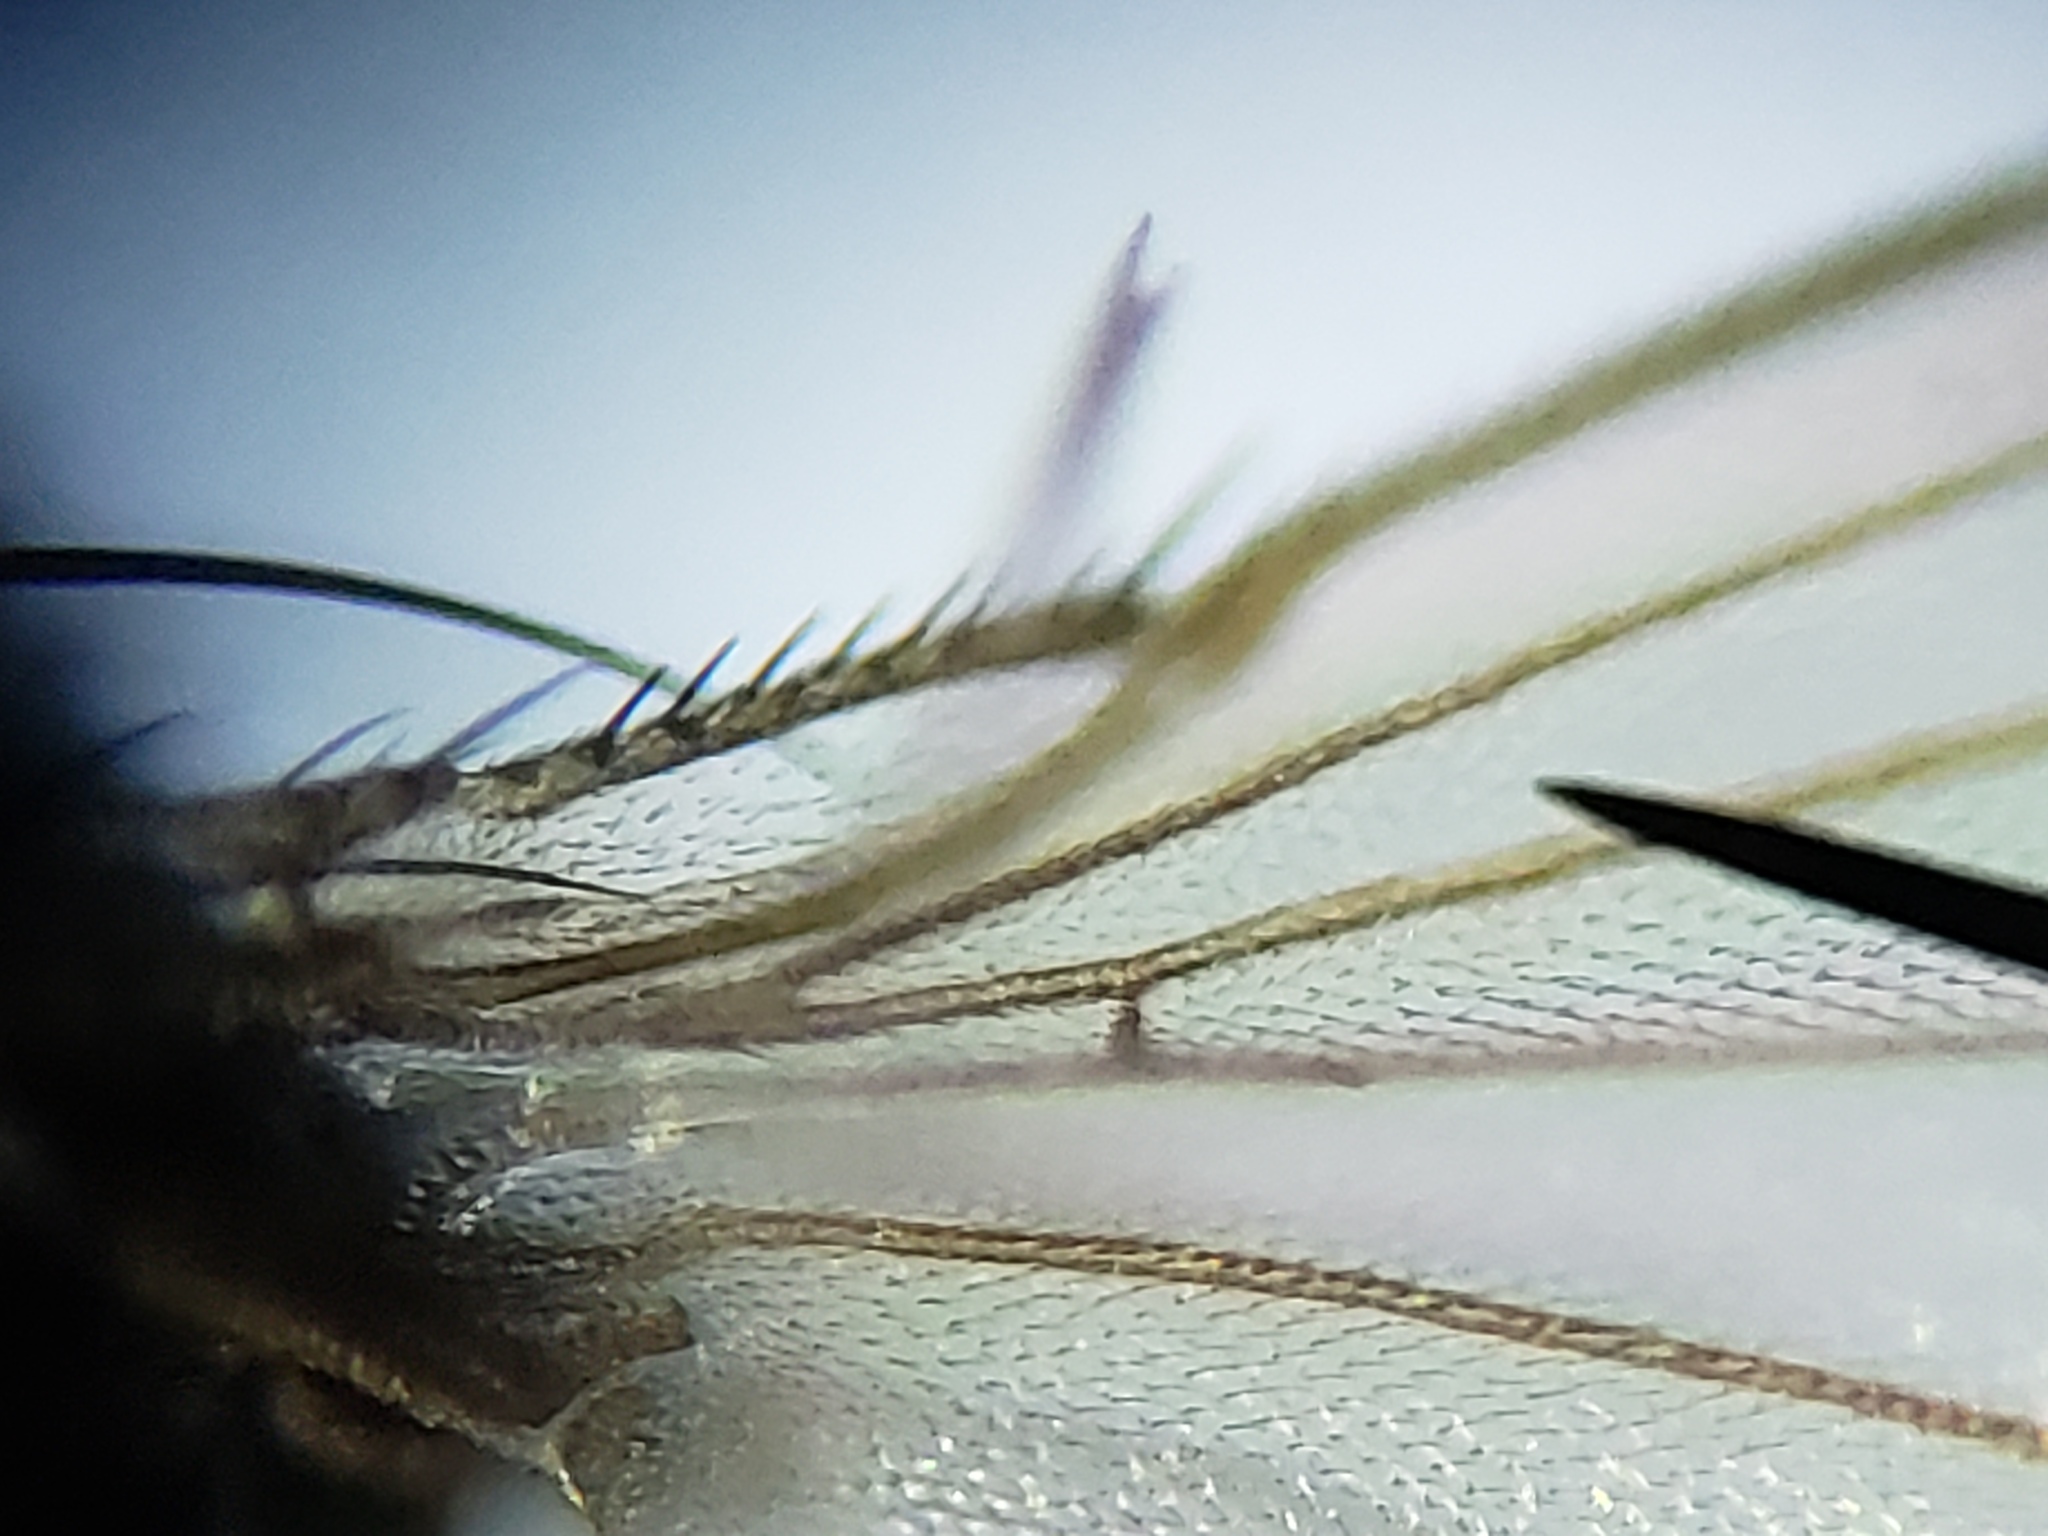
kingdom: Animalia
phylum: Arthropoda
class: Insecta
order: Diptera
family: Ephydridae
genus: Leptopsilopa
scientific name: Leptopsilopa nigrimanus
